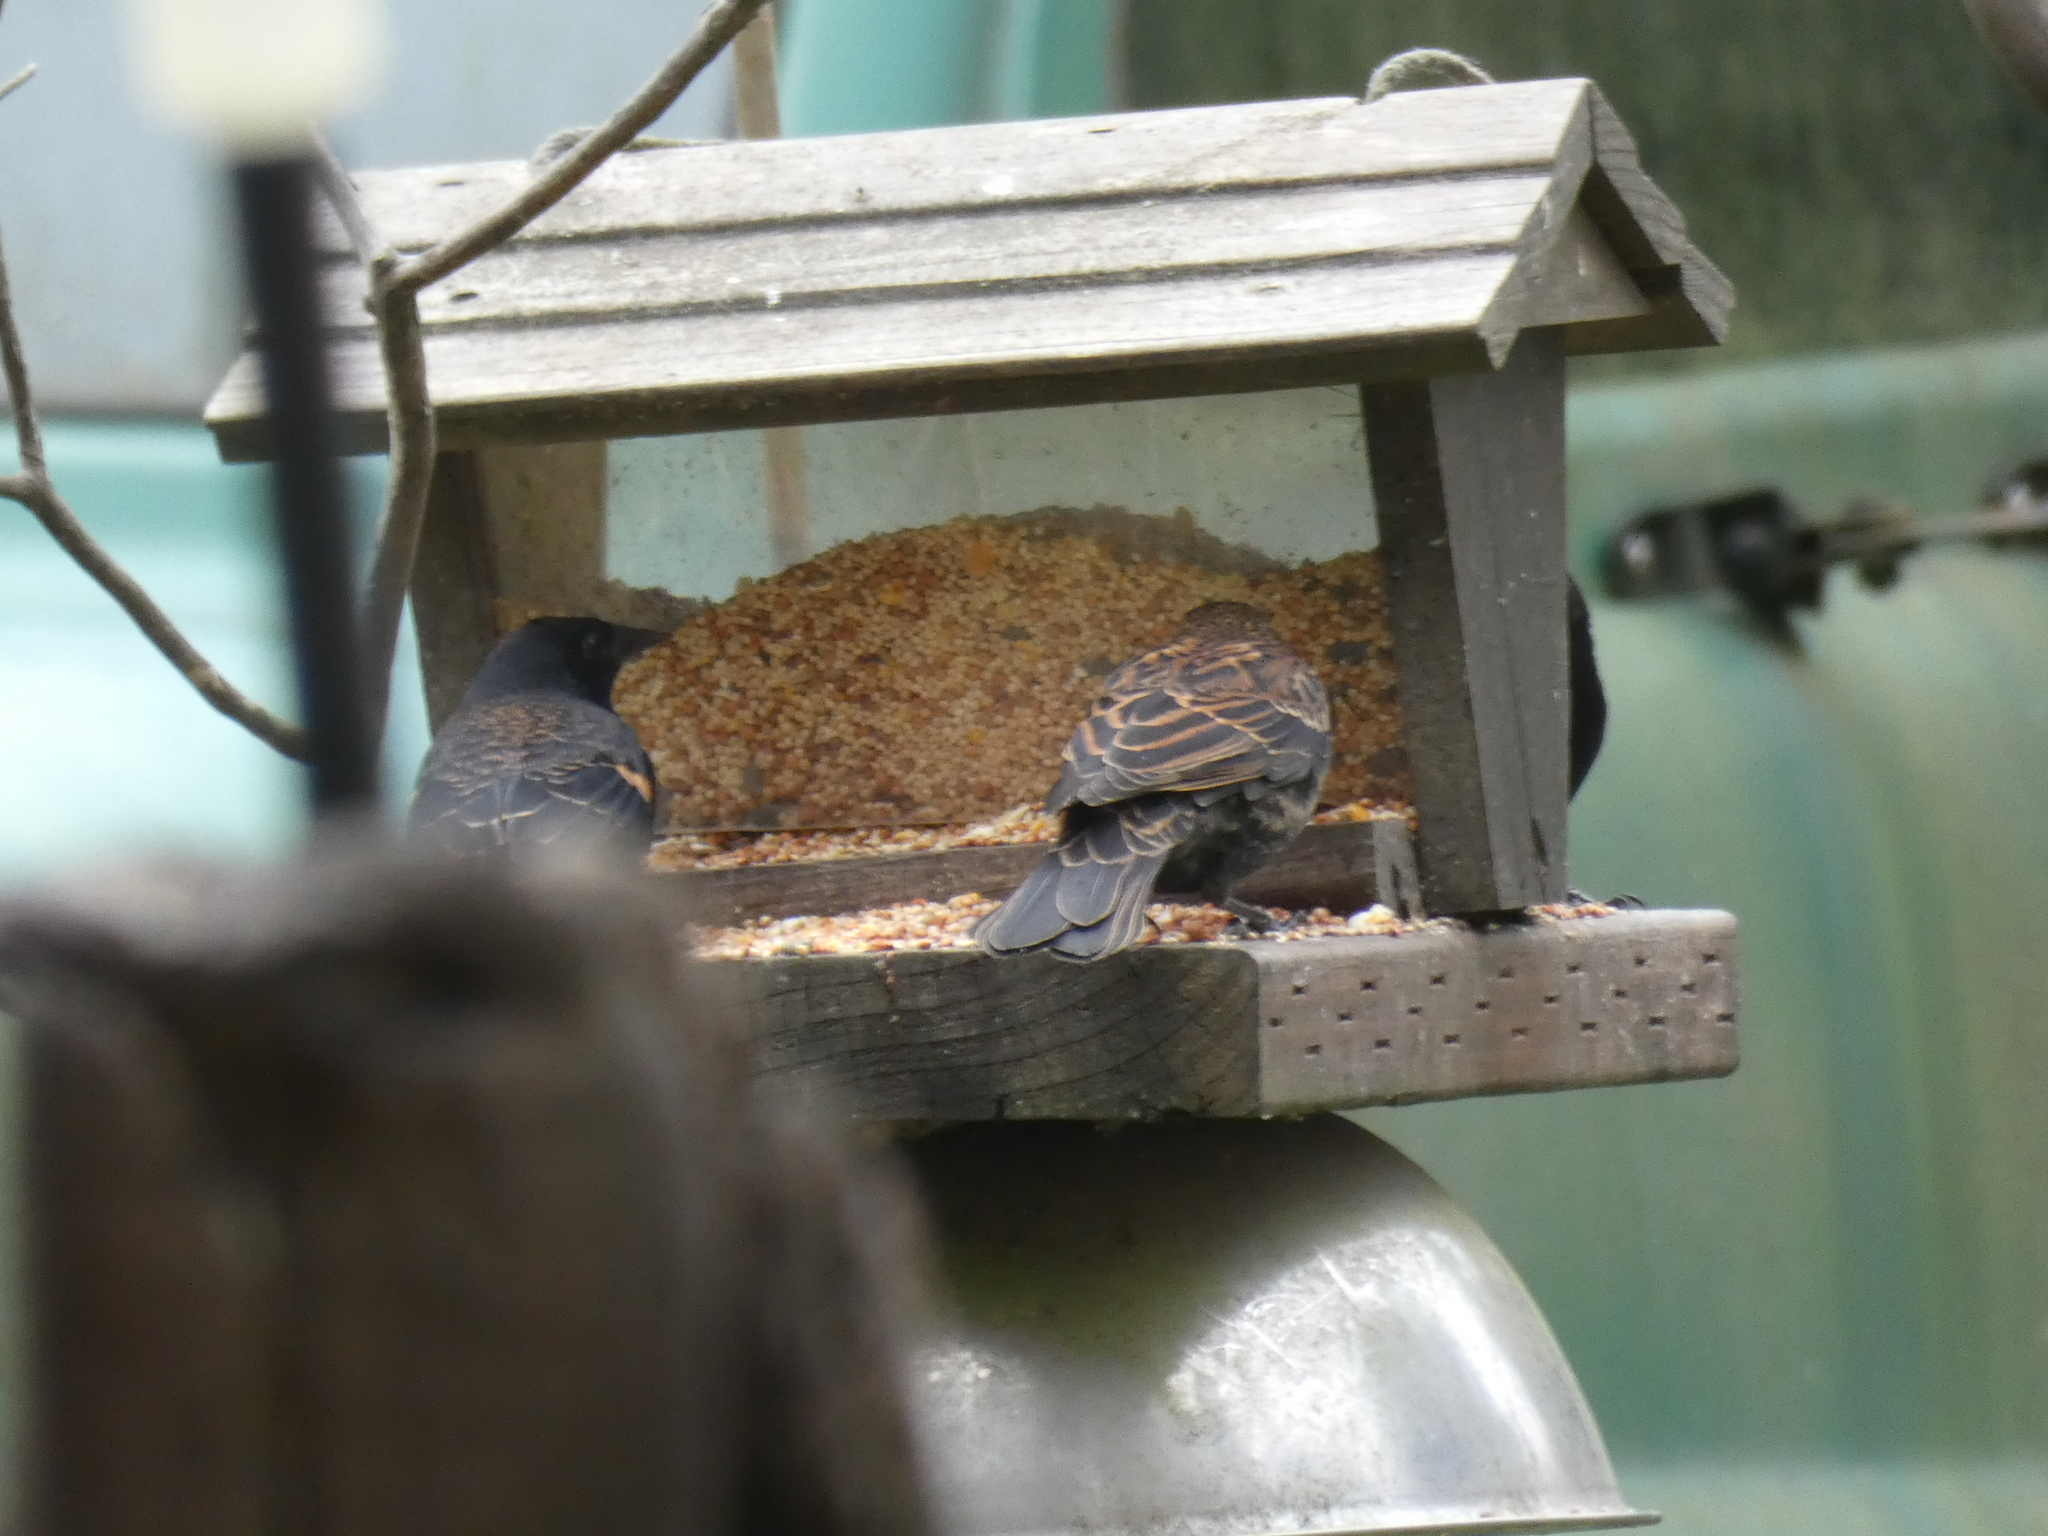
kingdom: Animalia
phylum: Chordata
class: Aves
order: Passeriformes
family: Icteridae
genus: Agelaius
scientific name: Agelaius phoeniceus
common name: Red-winged blackbird
